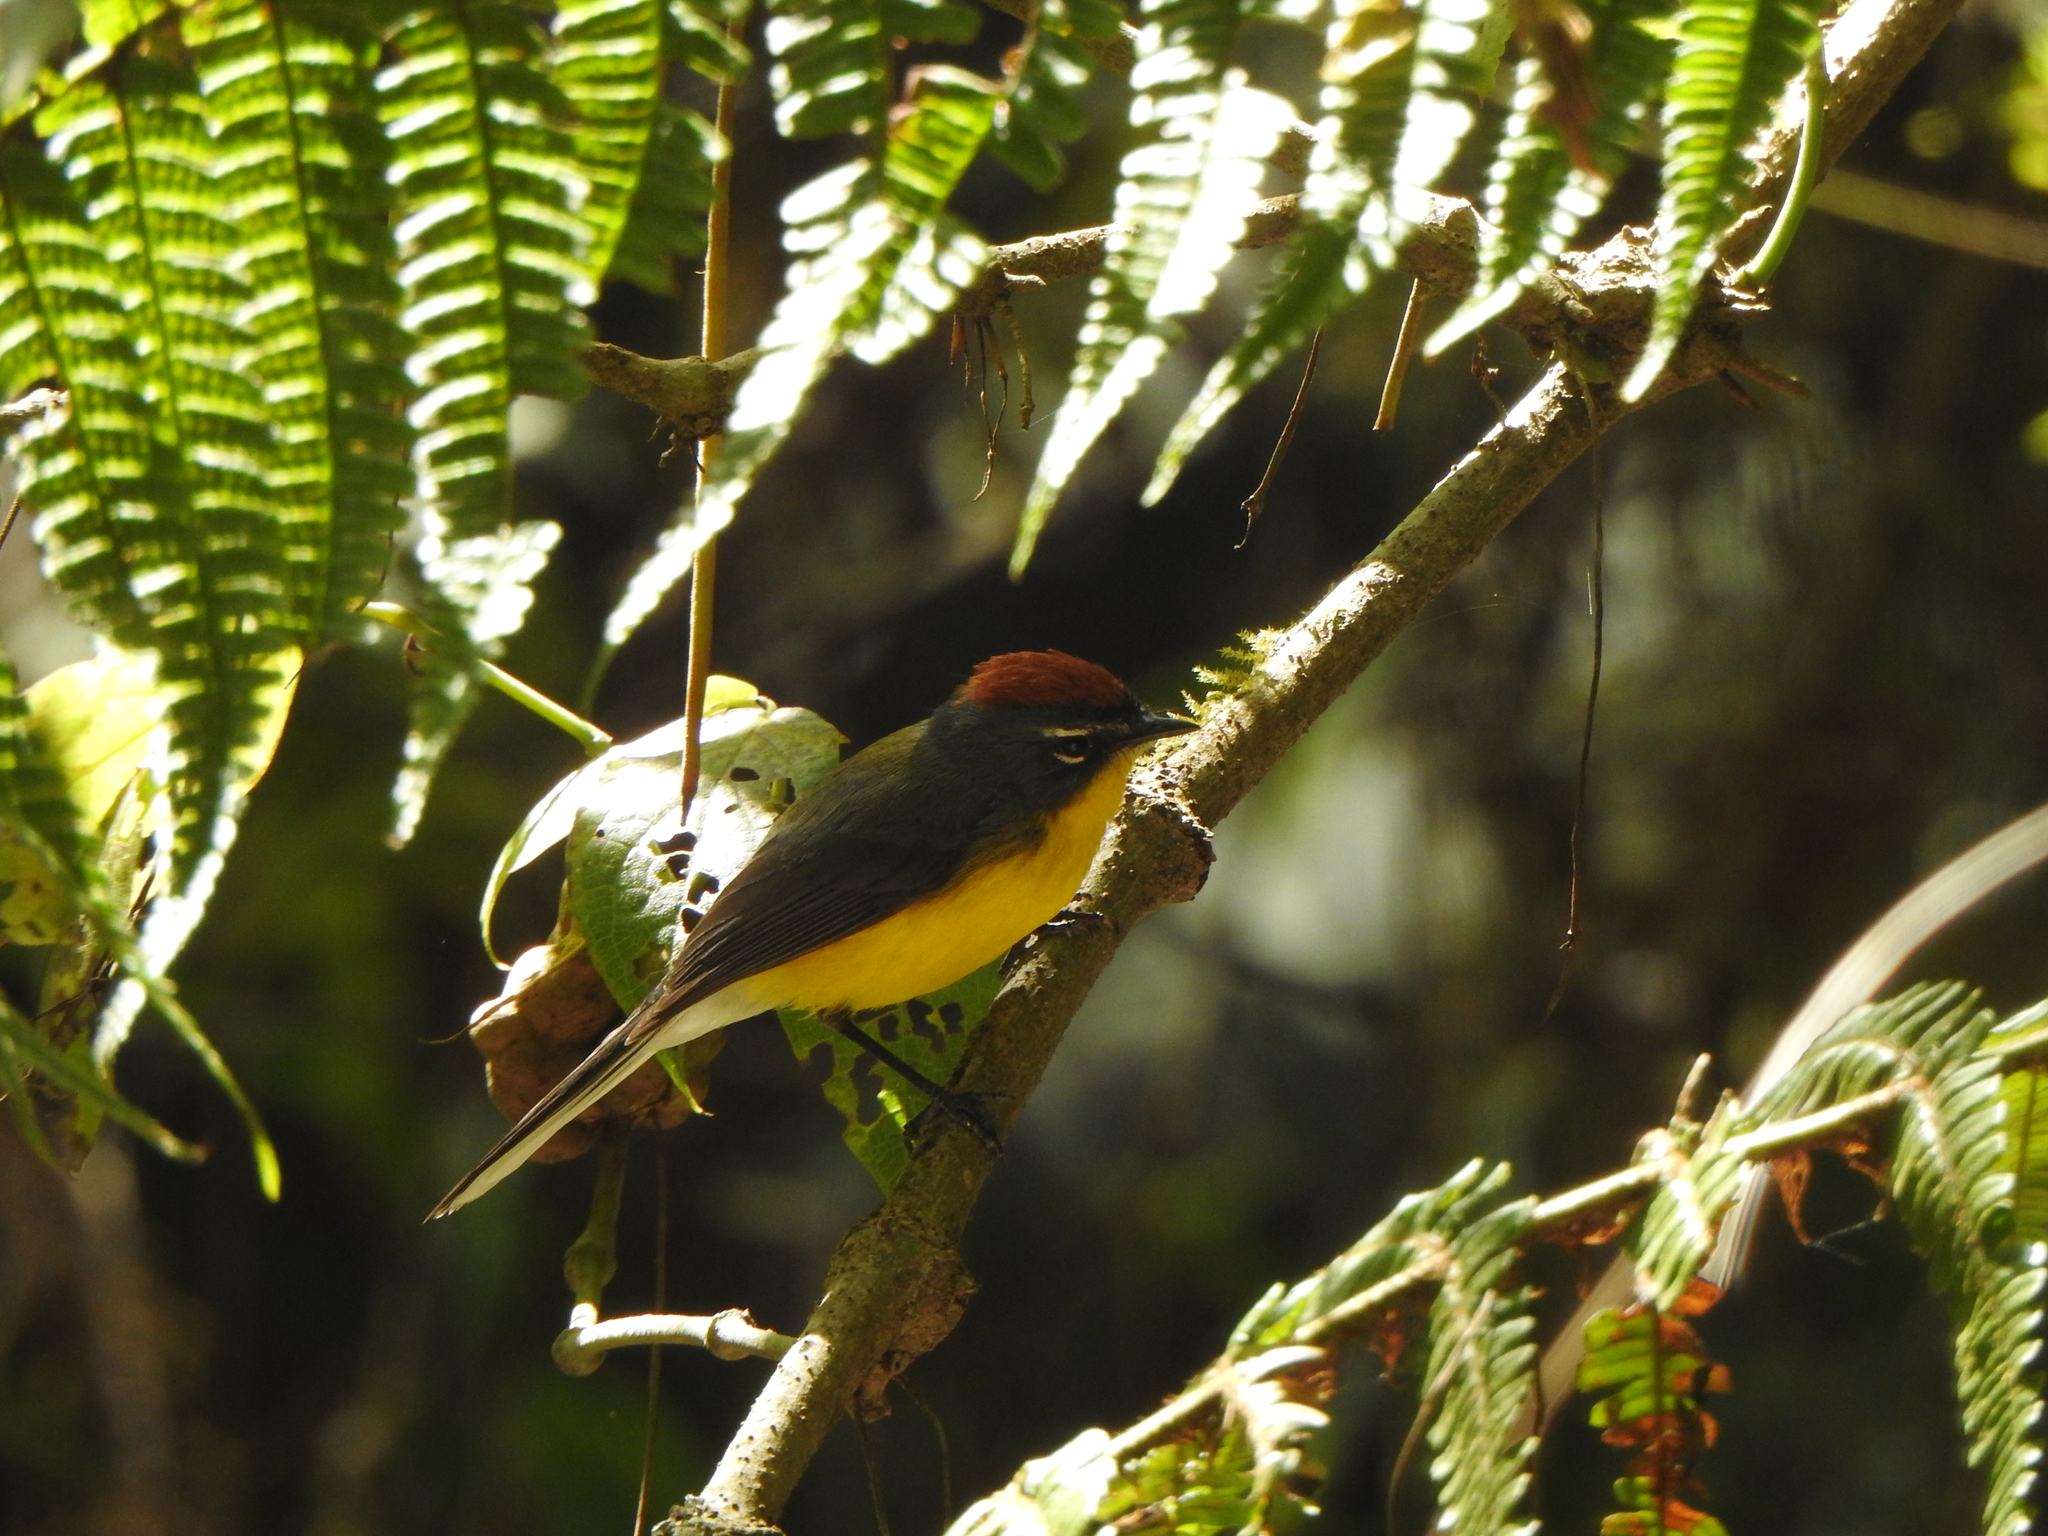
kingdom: Animalia
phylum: Chordata
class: Aves
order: Passeriformes
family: Parulidae
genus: Myioborus
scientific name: Myioborus brunniceps
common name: Brown-capped whitestart
